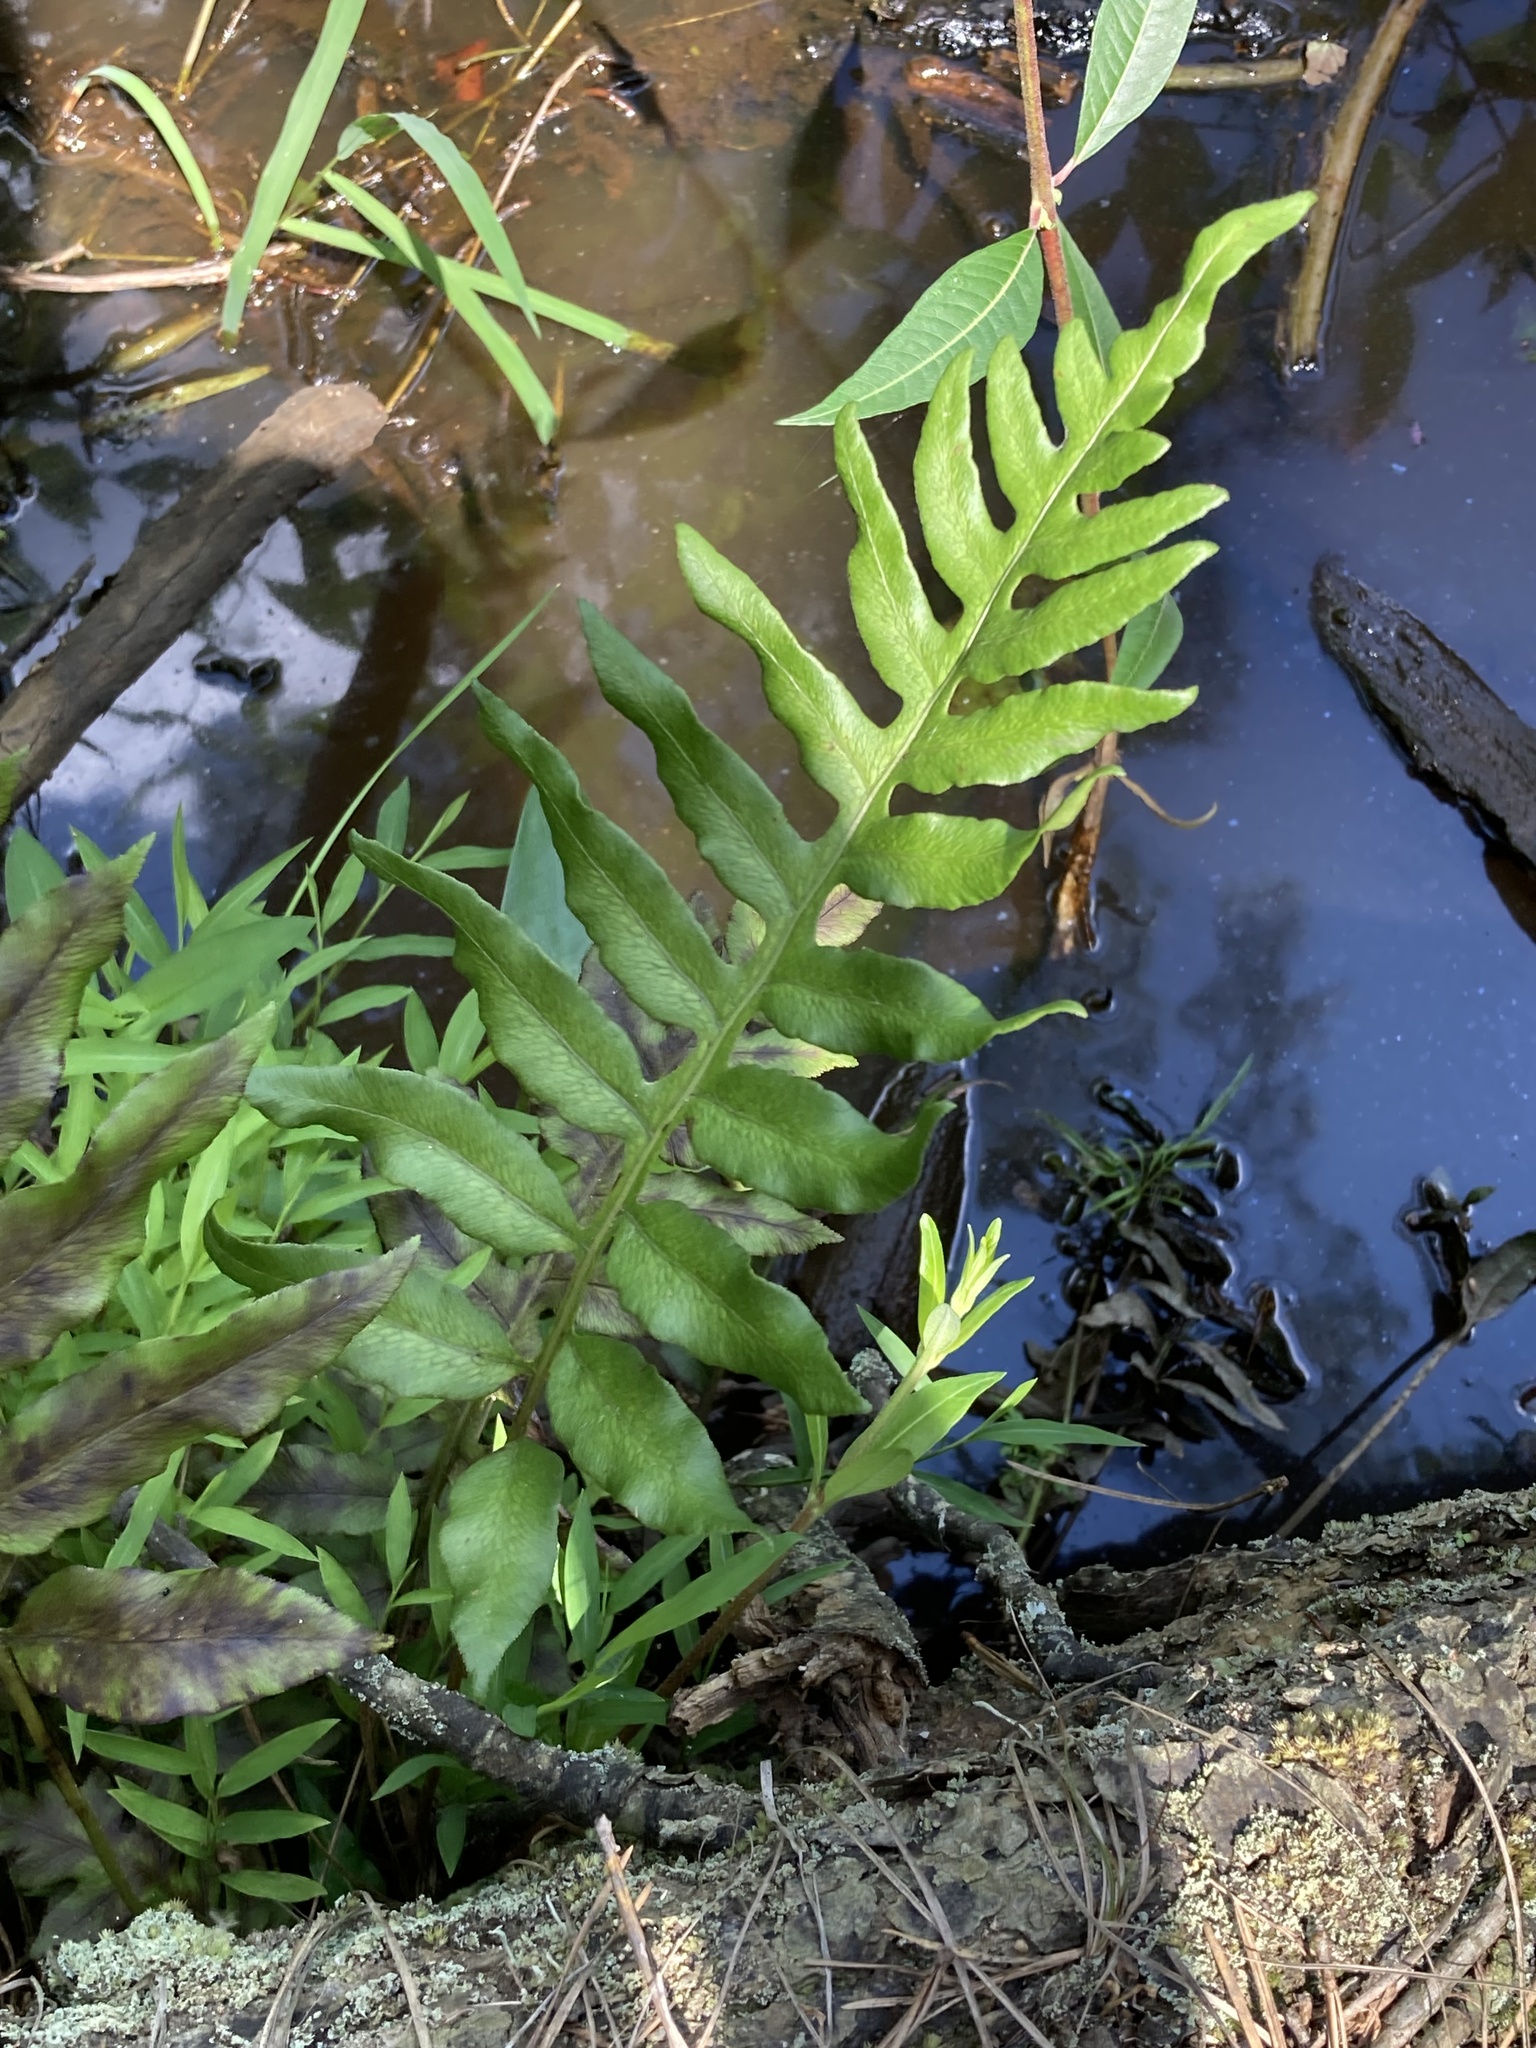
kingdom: Plantae
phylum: Tracheophyta
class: Polypodiopsida
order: Polypodiales
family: Blechnaceae
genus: Lorinseria
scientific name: Lorinseria areolata
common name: Dwarf chain fern
